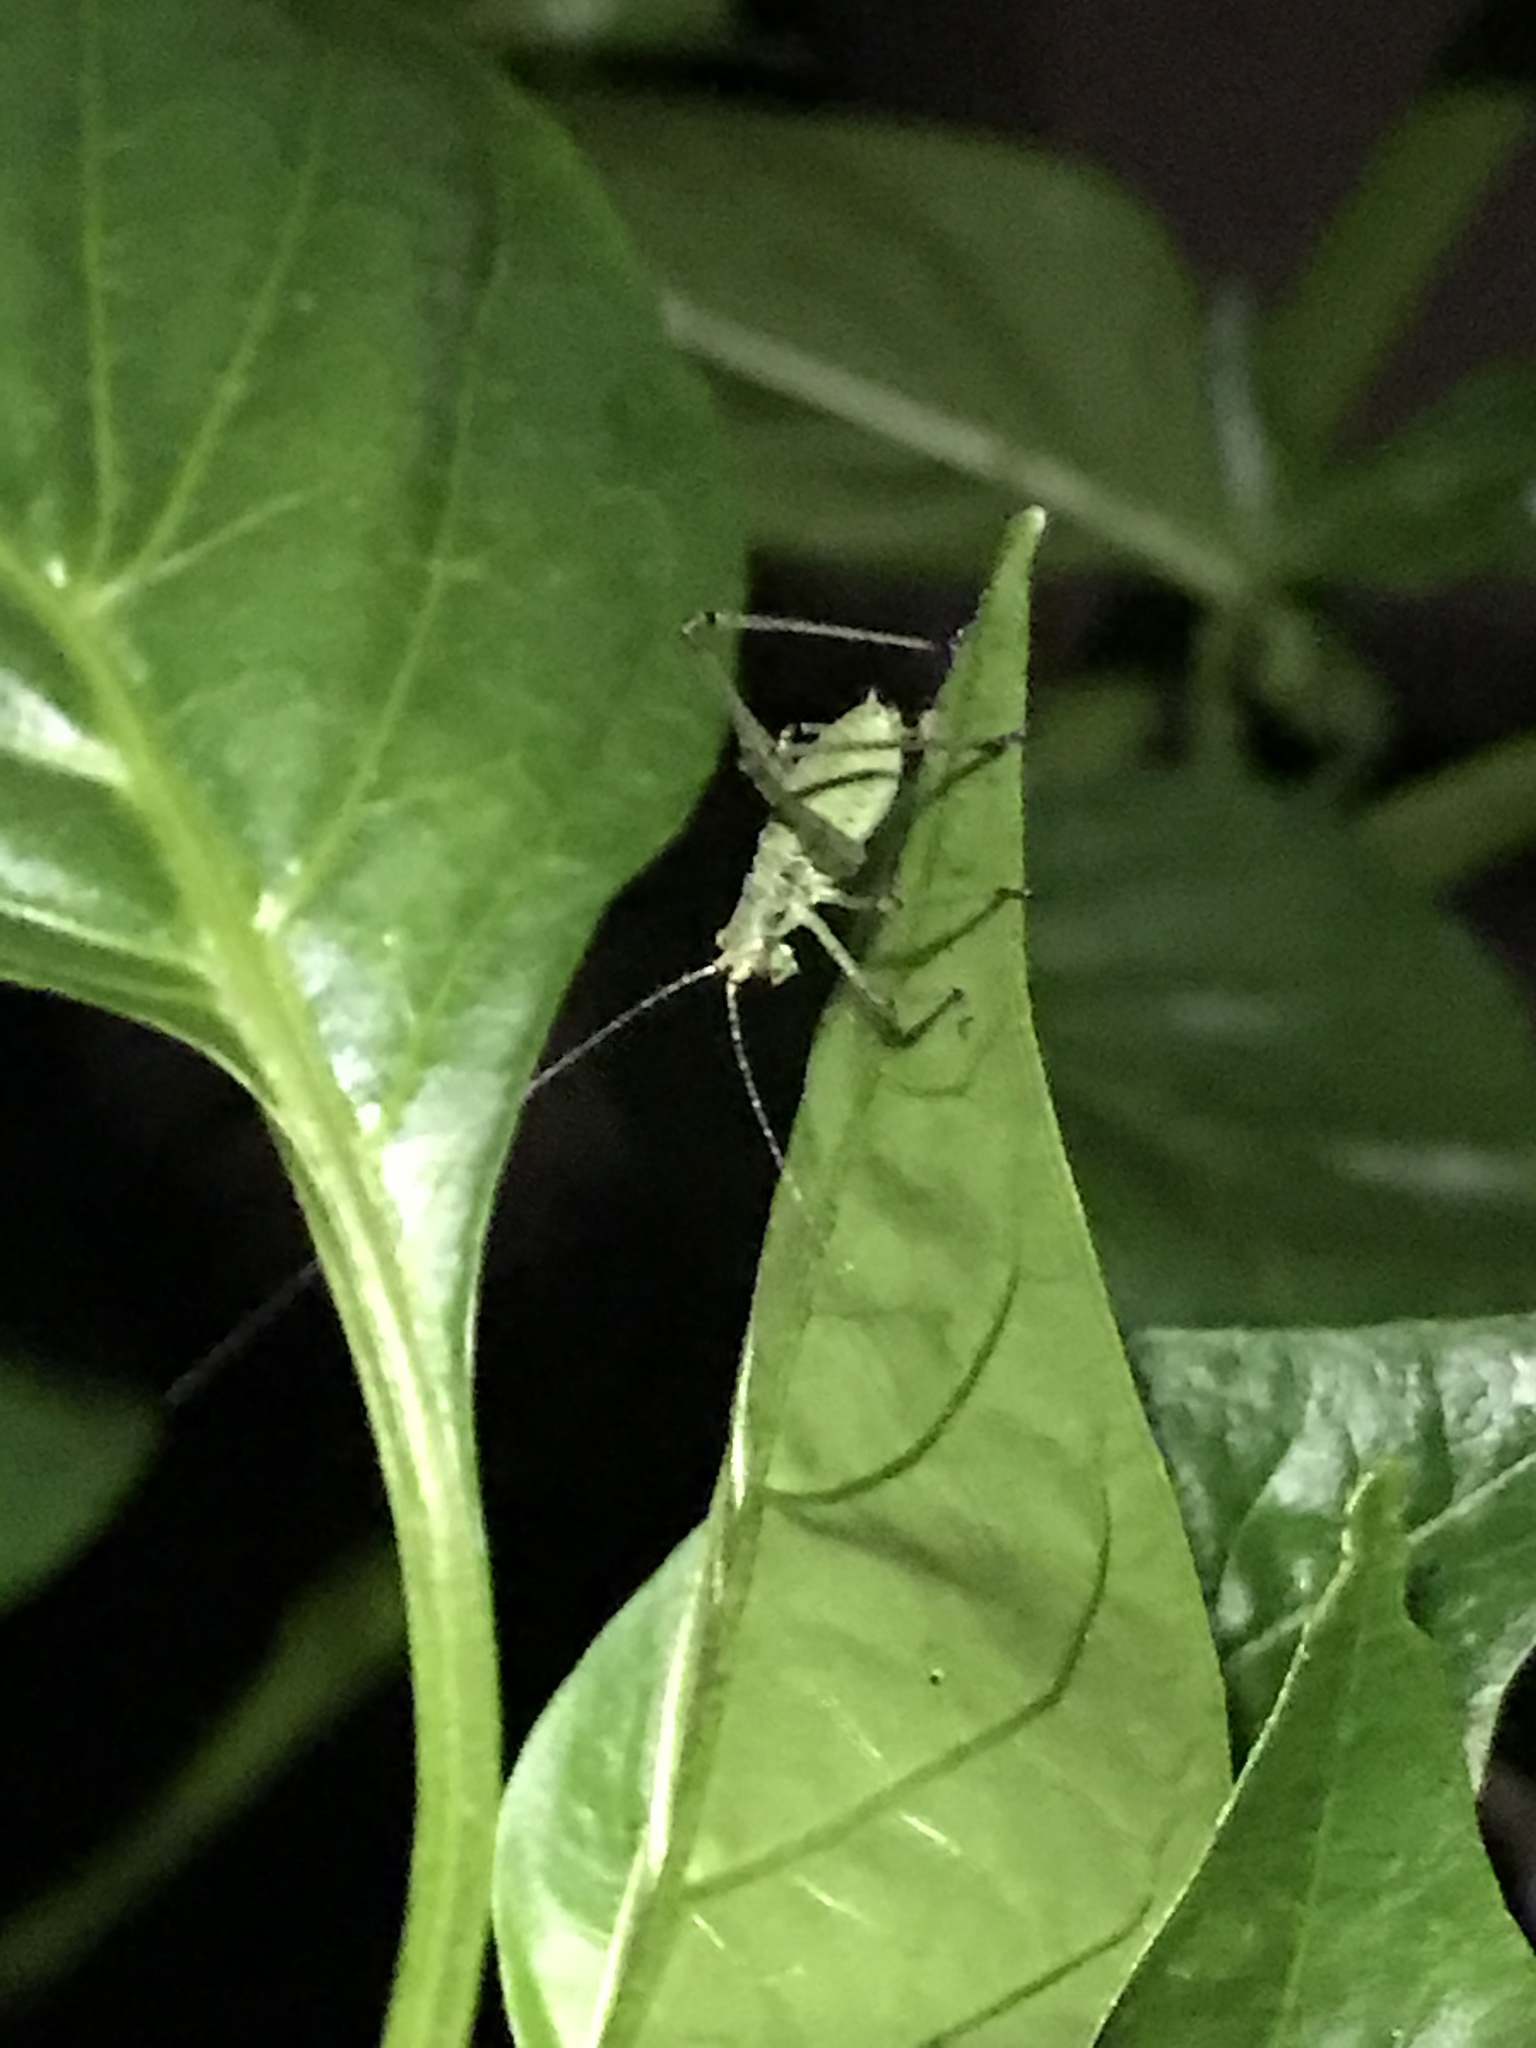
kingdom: Animalia
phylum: Arthropoda
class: Insecta
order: Orthoptera
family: Tettigoniidae
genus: Phaneroptera
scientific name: Phaneroptera nana
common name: Southern sickle bush-cricket
